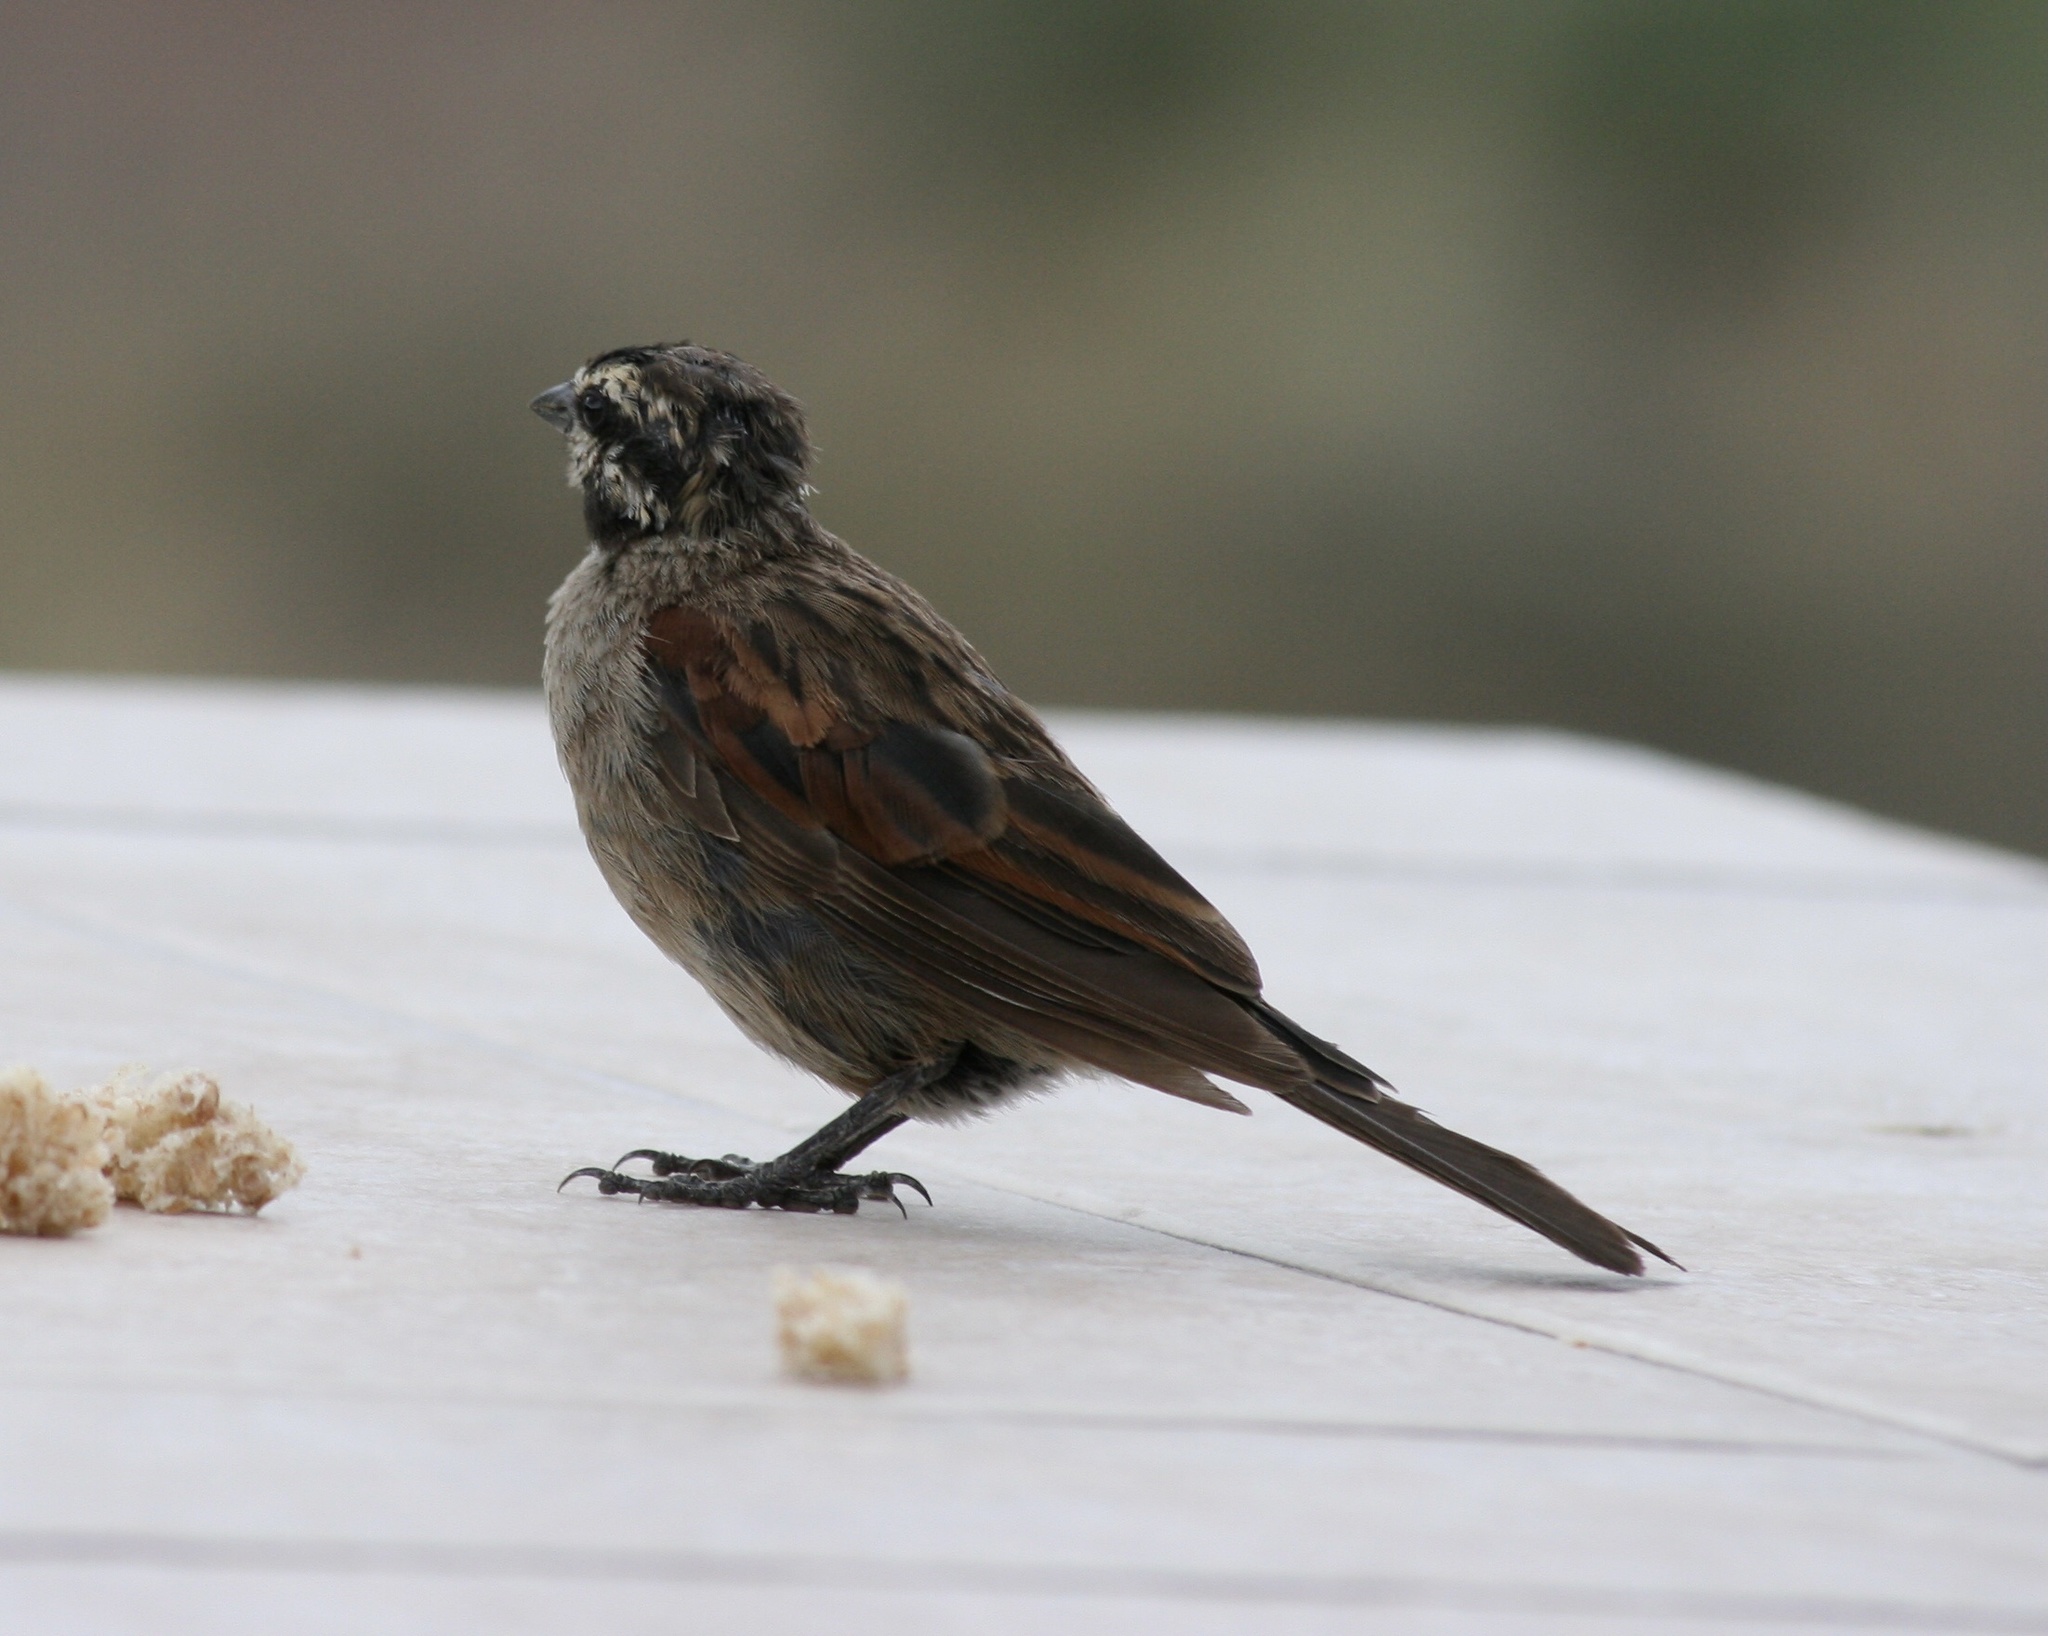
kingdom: Animalia
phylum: Chordata
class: Aves
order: Passeriformes
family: Emberizidae
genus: Emberiza
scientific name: Emberiza capensis
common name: Cape bunting
